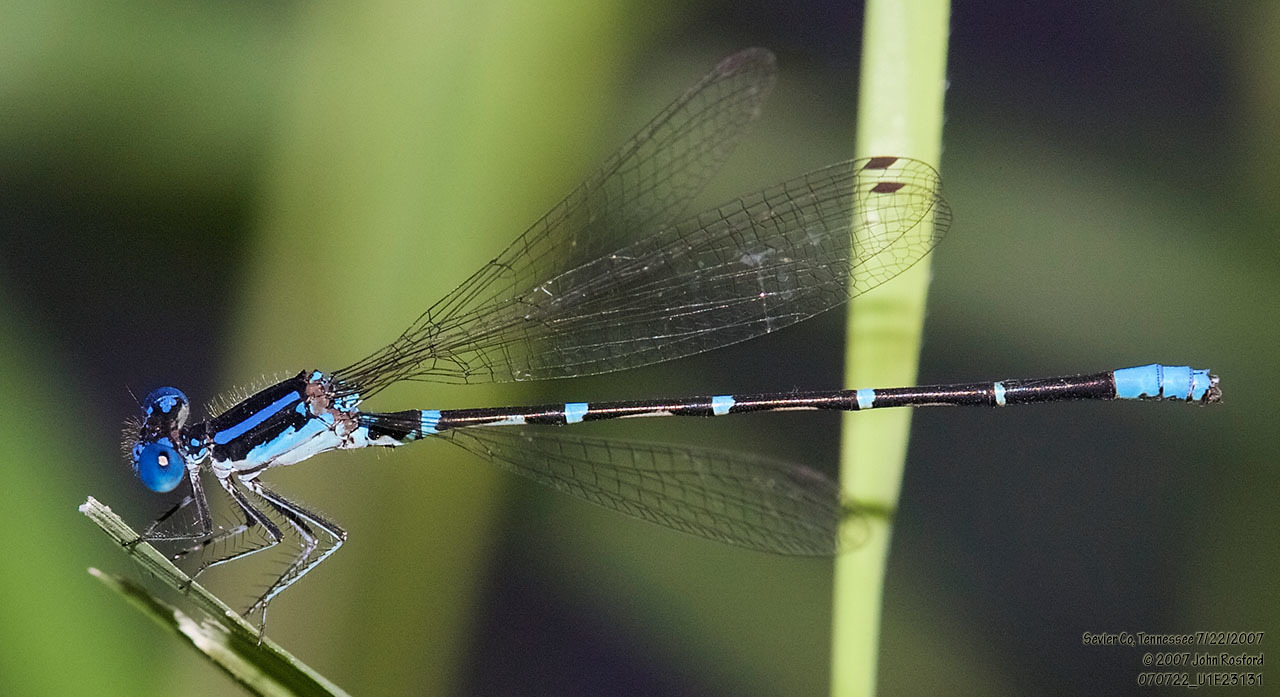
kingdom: Animalia
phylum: Arthropoda
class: Insecta
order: Odonata
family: Coenagrionidae
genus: Argia
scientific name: Argia sedula
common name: Blue-ringed dancer
